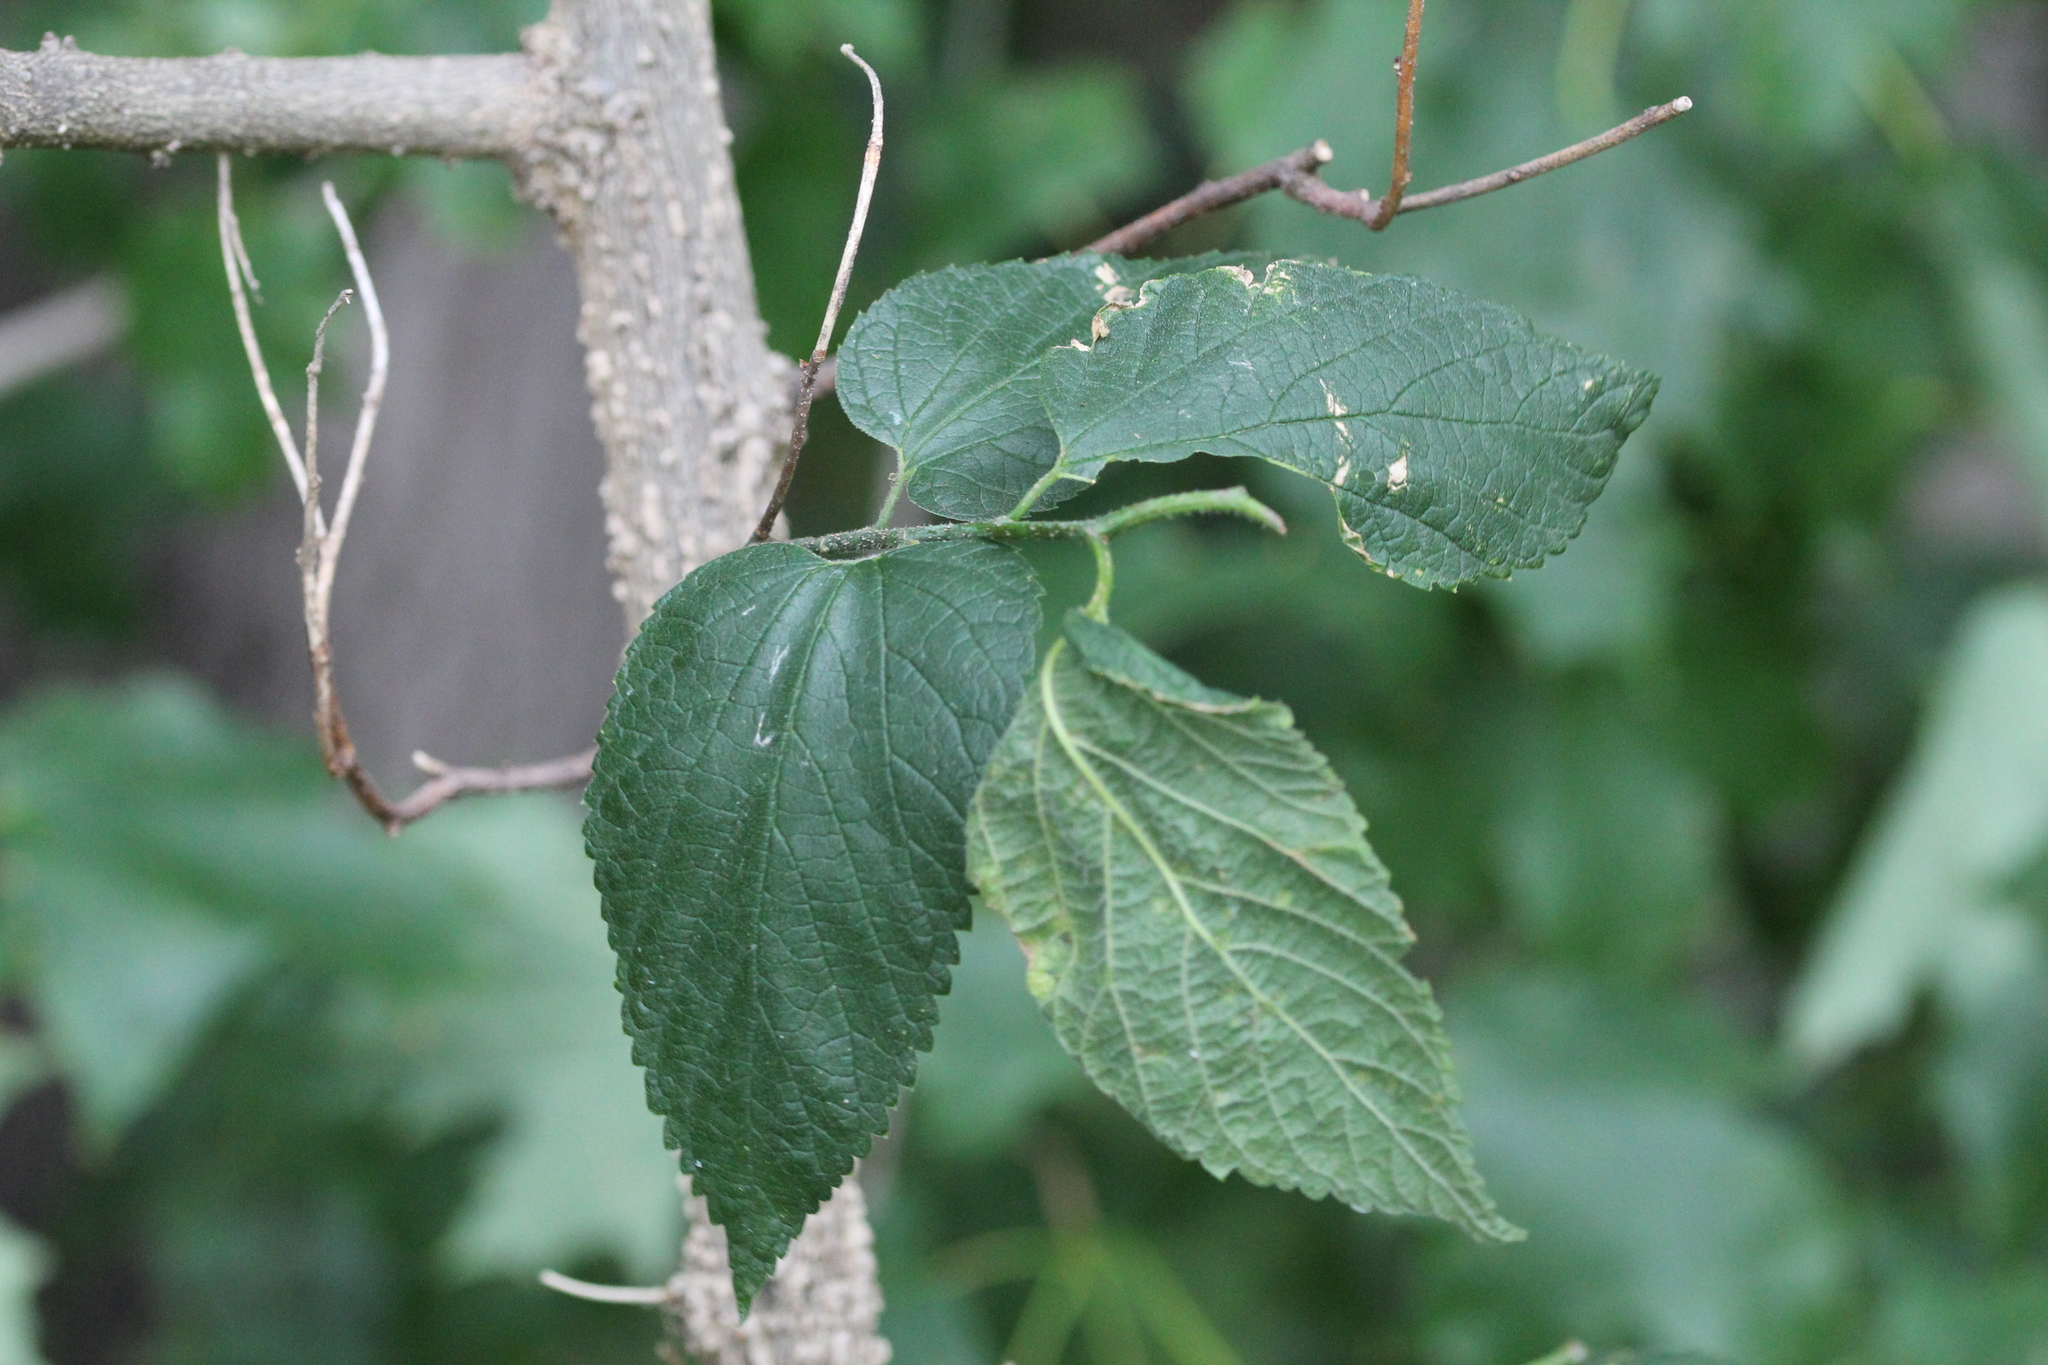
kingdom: Plantae
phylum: Tracheophyta
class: Magnoliopsida
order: Rosales
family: Cannabaceae
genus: Celtis
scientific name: Celtis occidentalis
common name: Common hackberry
